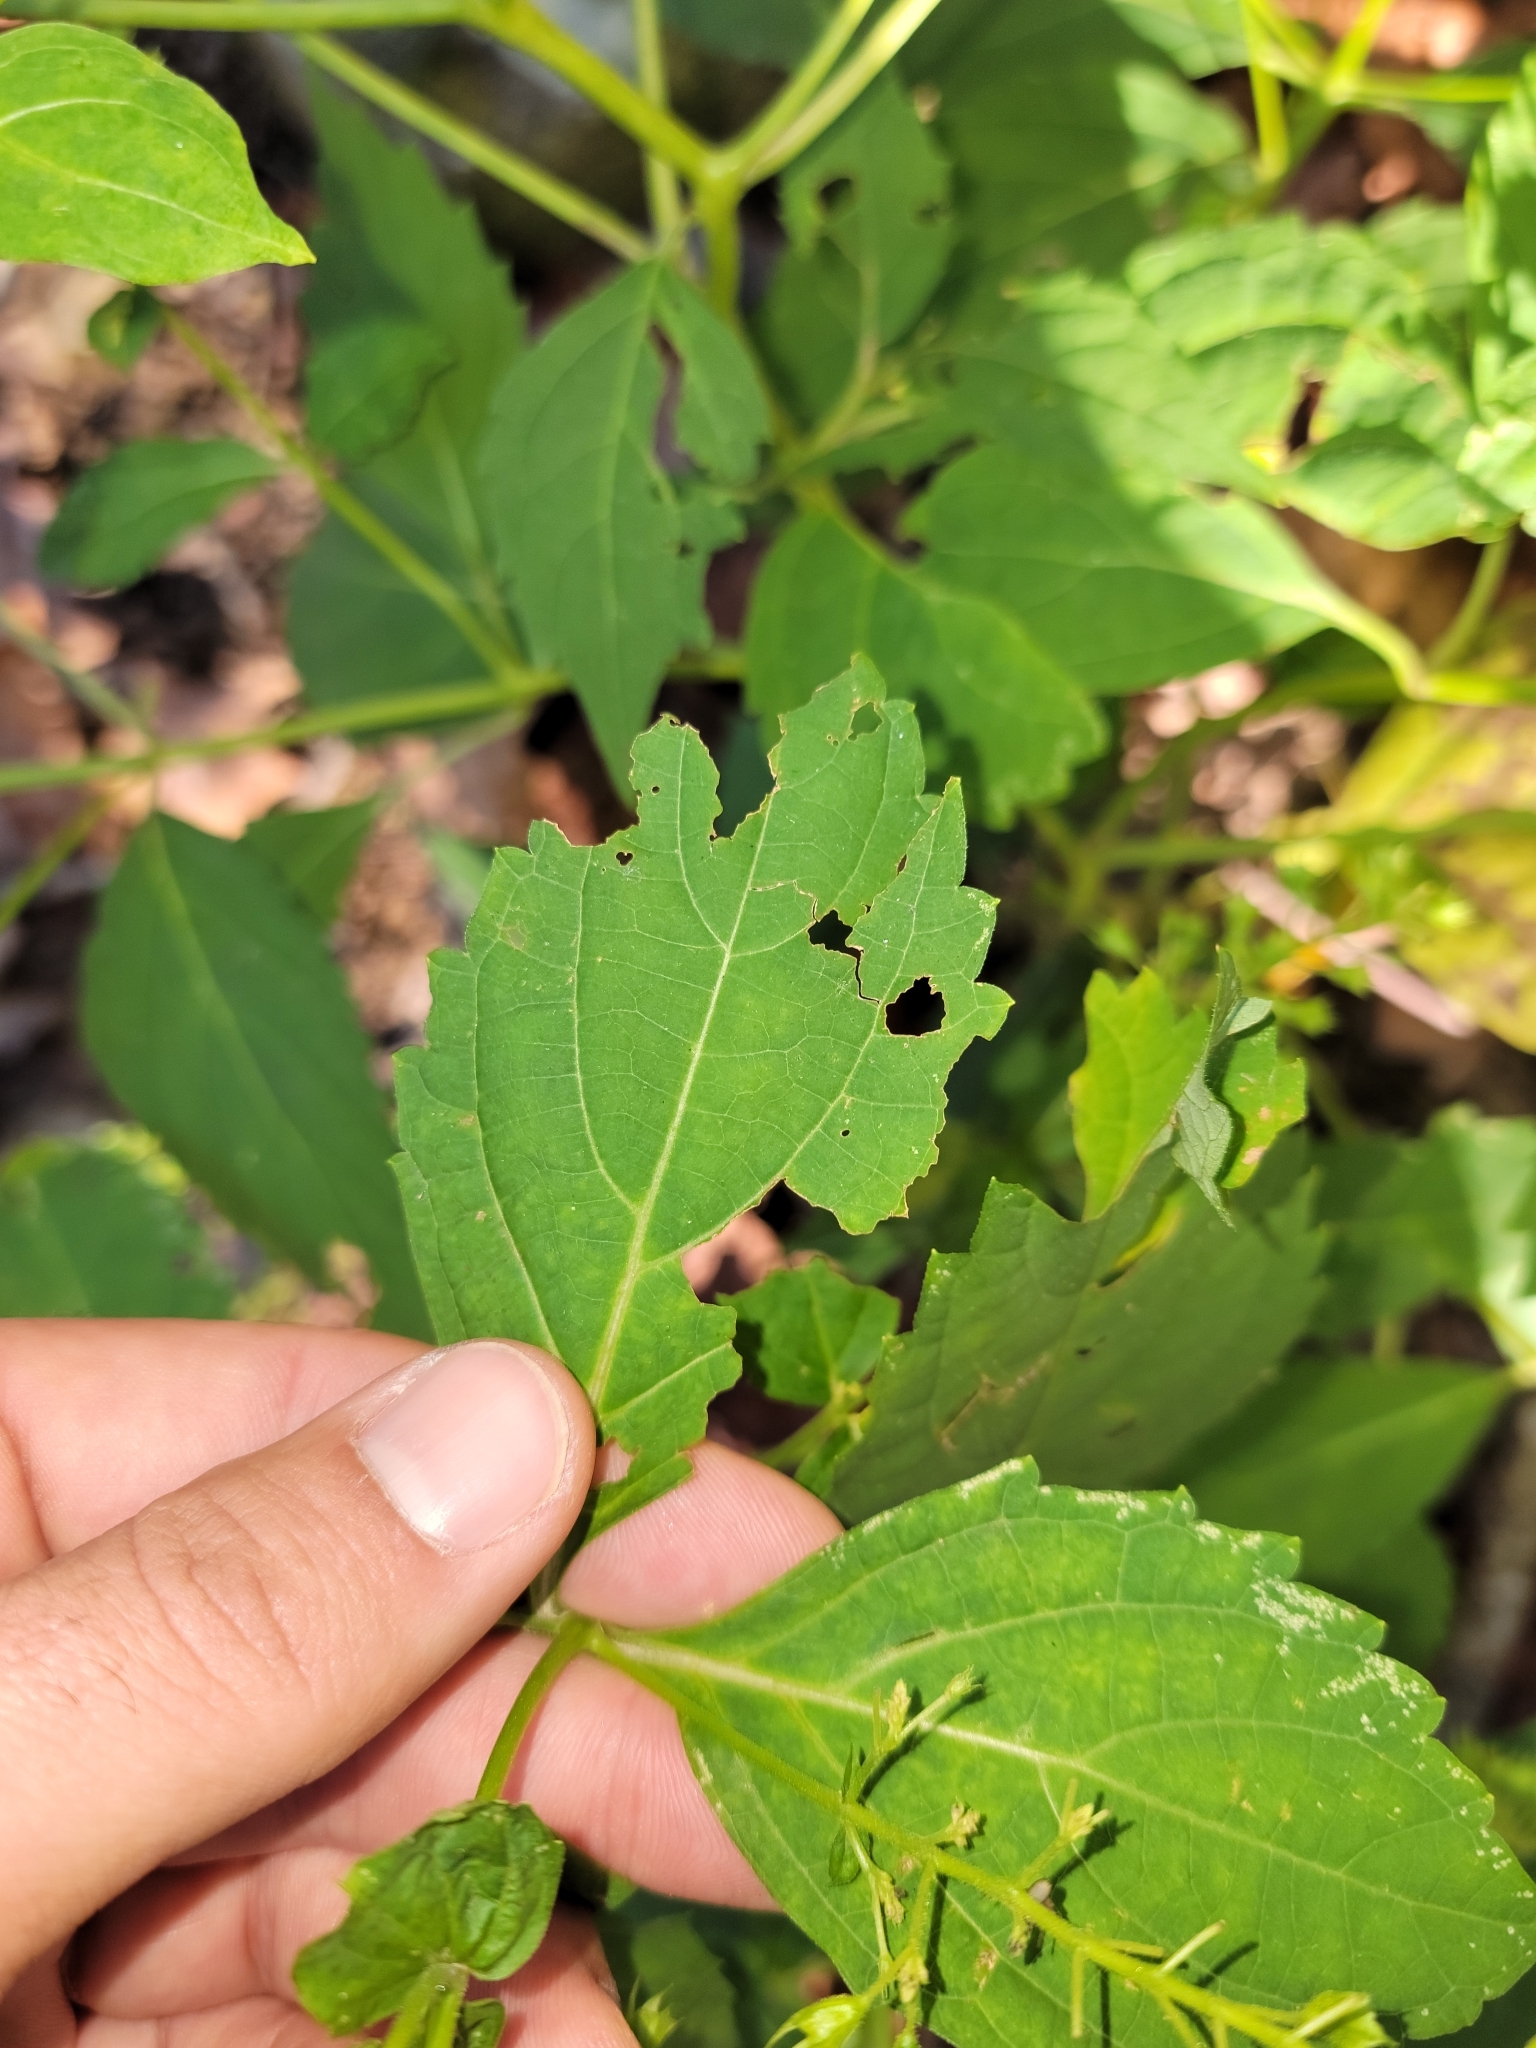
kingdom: Plantae
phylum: Tracheophyta
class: Magnoliopsida
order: Lamiales
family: Lamiaceae
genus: Collinsonia
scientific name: Collinsonia canadensis
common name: Northern horsebalm
